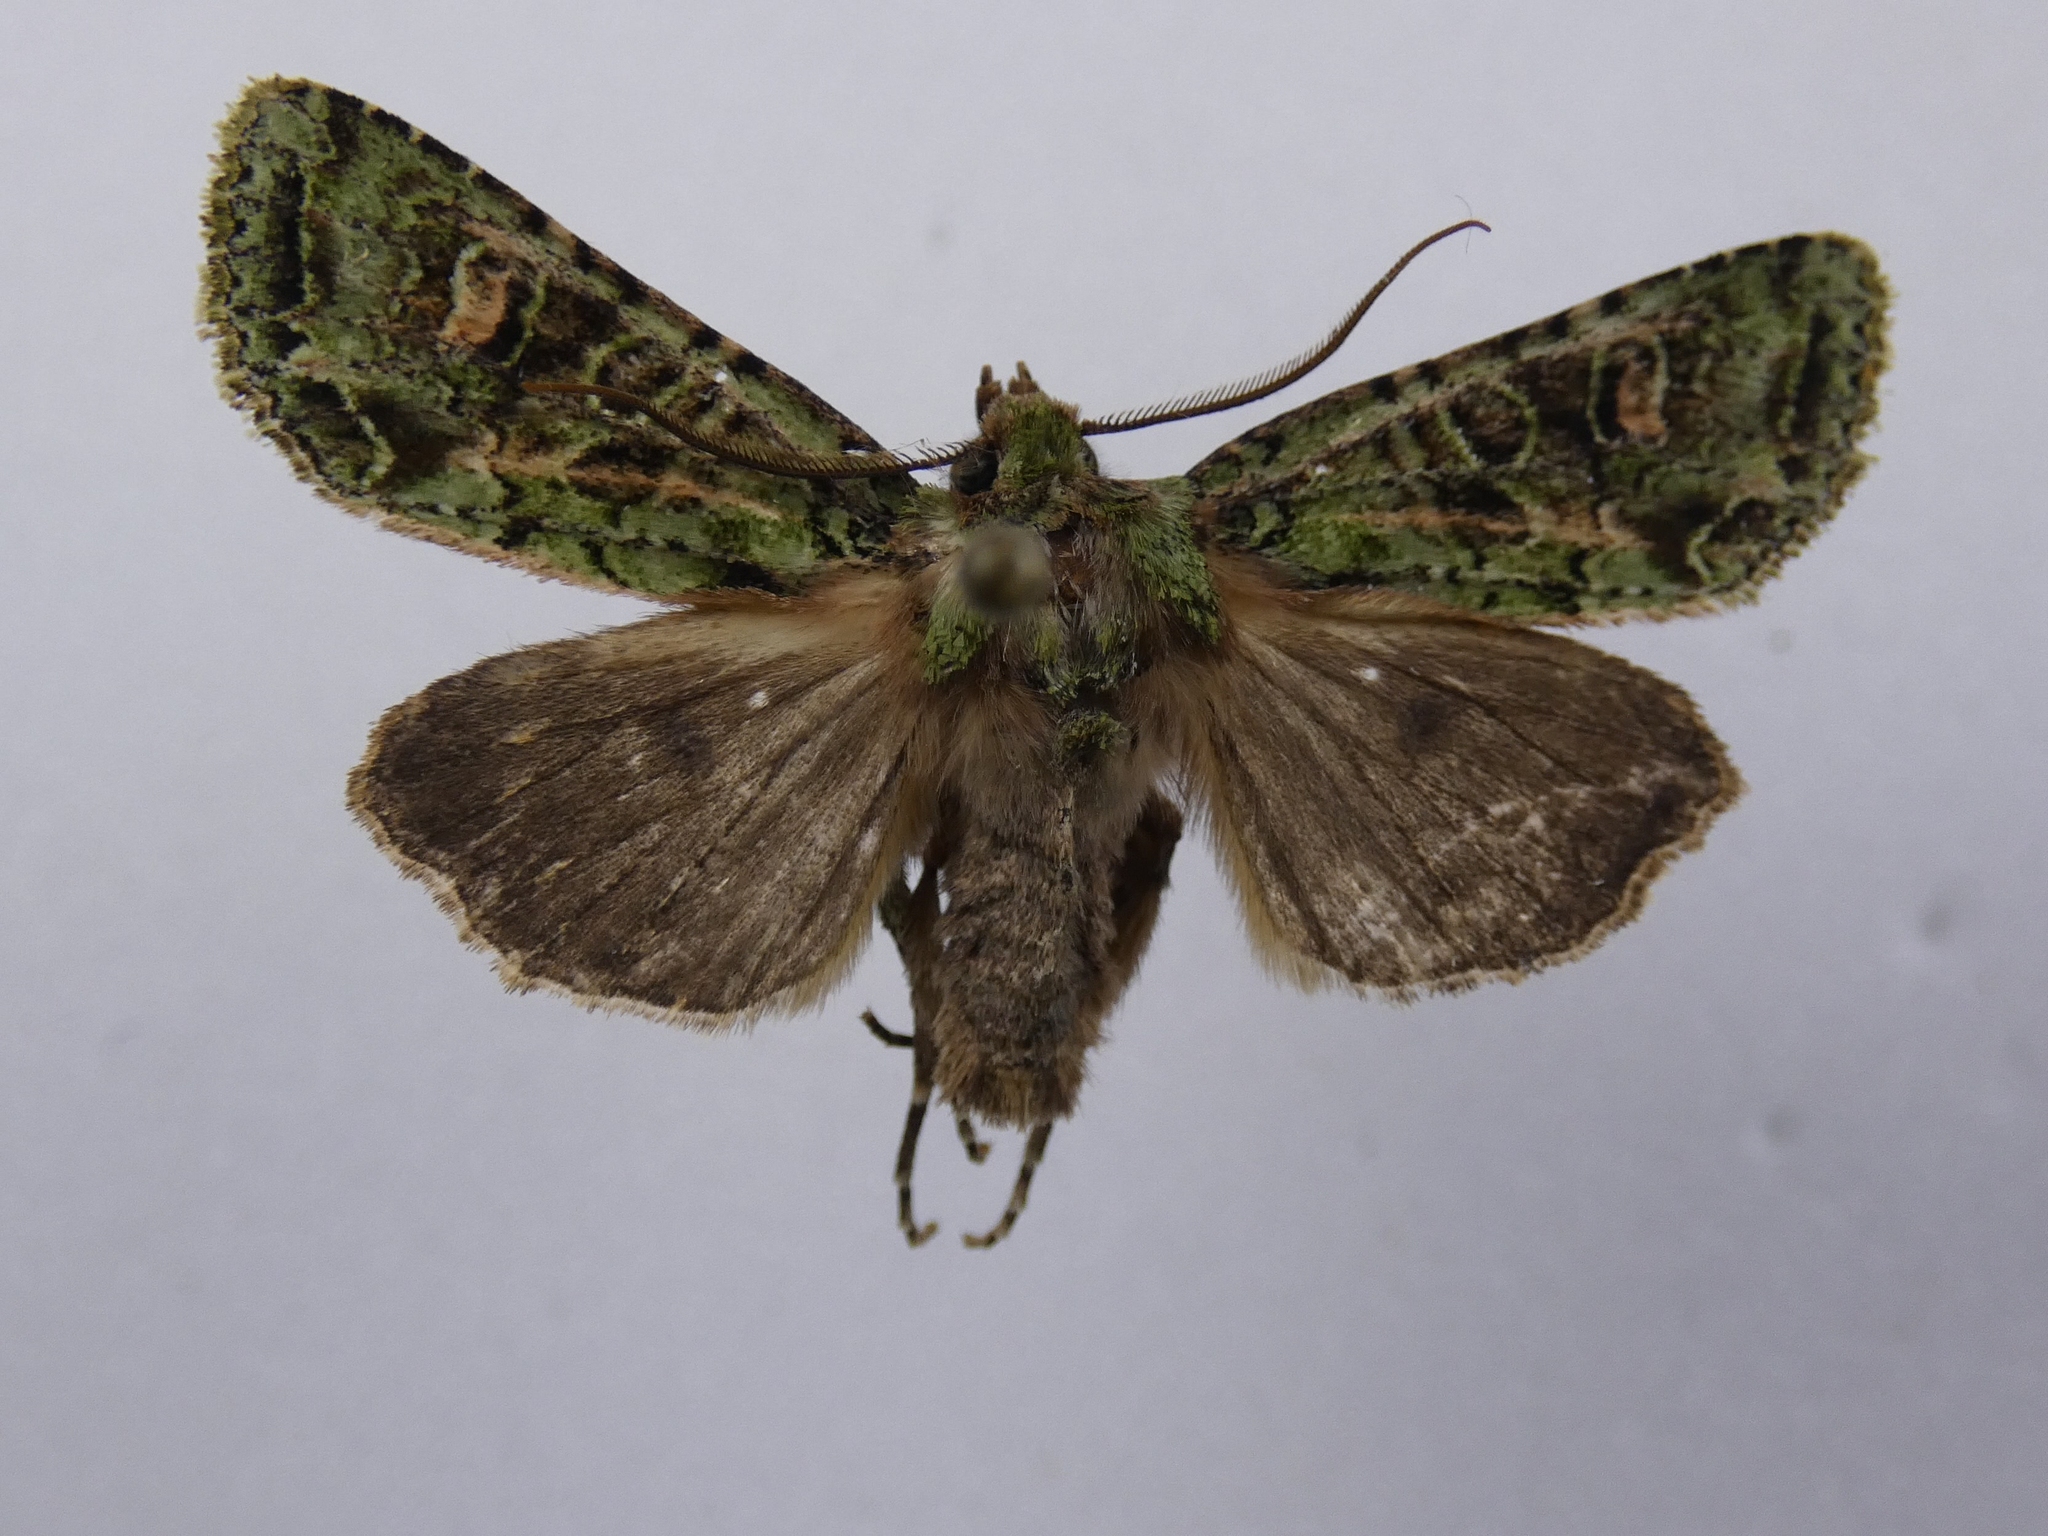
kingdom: Animalia
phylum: Arthropoda
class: Insecta
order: Lepidoptera
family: Noctuidae
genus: Ichneutica
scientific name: Ichneutica
